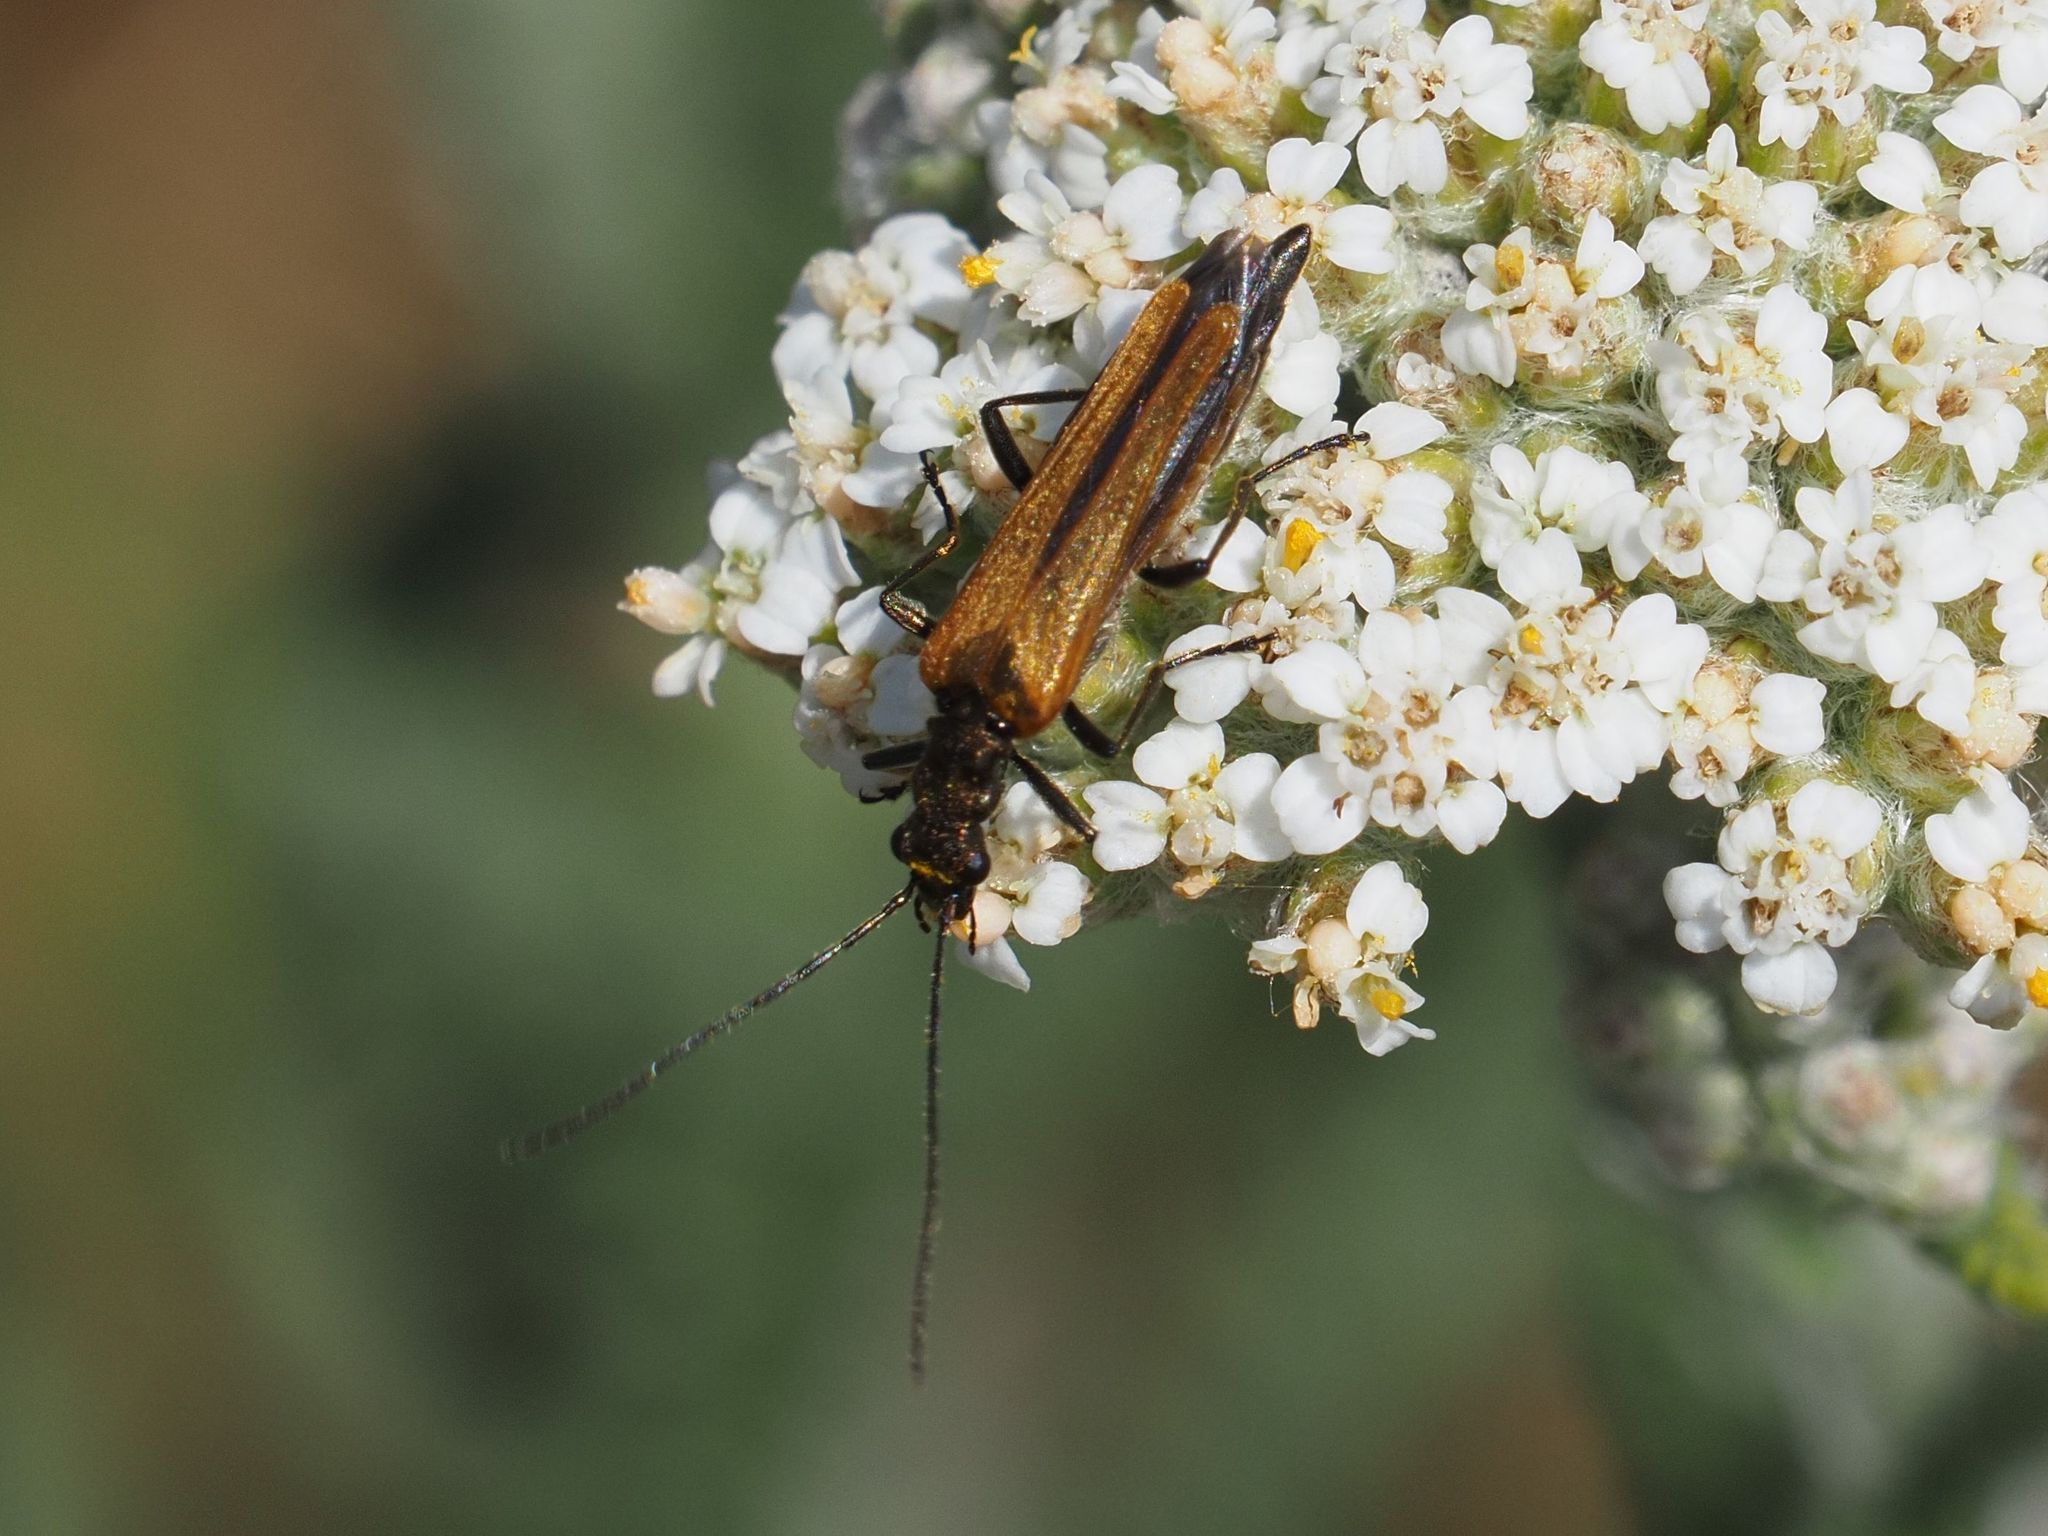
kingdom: Animalia
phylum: Arthropoda
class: Insecta
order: Coleoptera
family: Oedemeridae
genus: Oedemera
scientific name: Oedemera femorata
